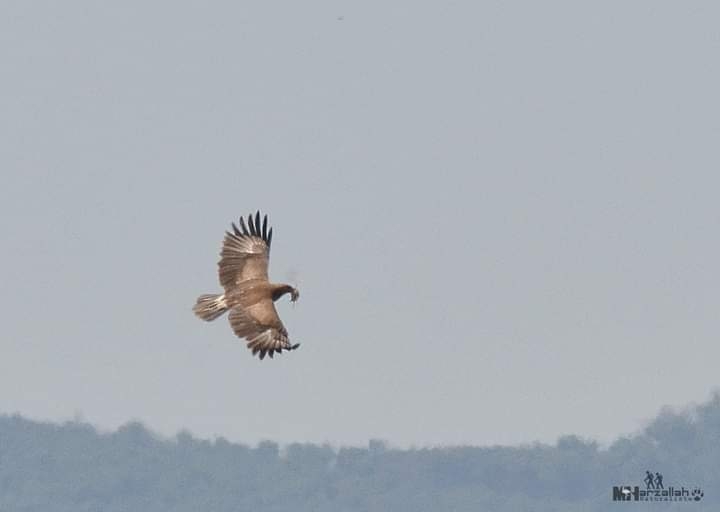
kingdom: Animalia
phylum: Chordata
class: Aves
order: Accipitriformes
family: Accipitridae
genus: Aquila
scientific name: Aquila pomarina
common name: Lesser spotted eagle
